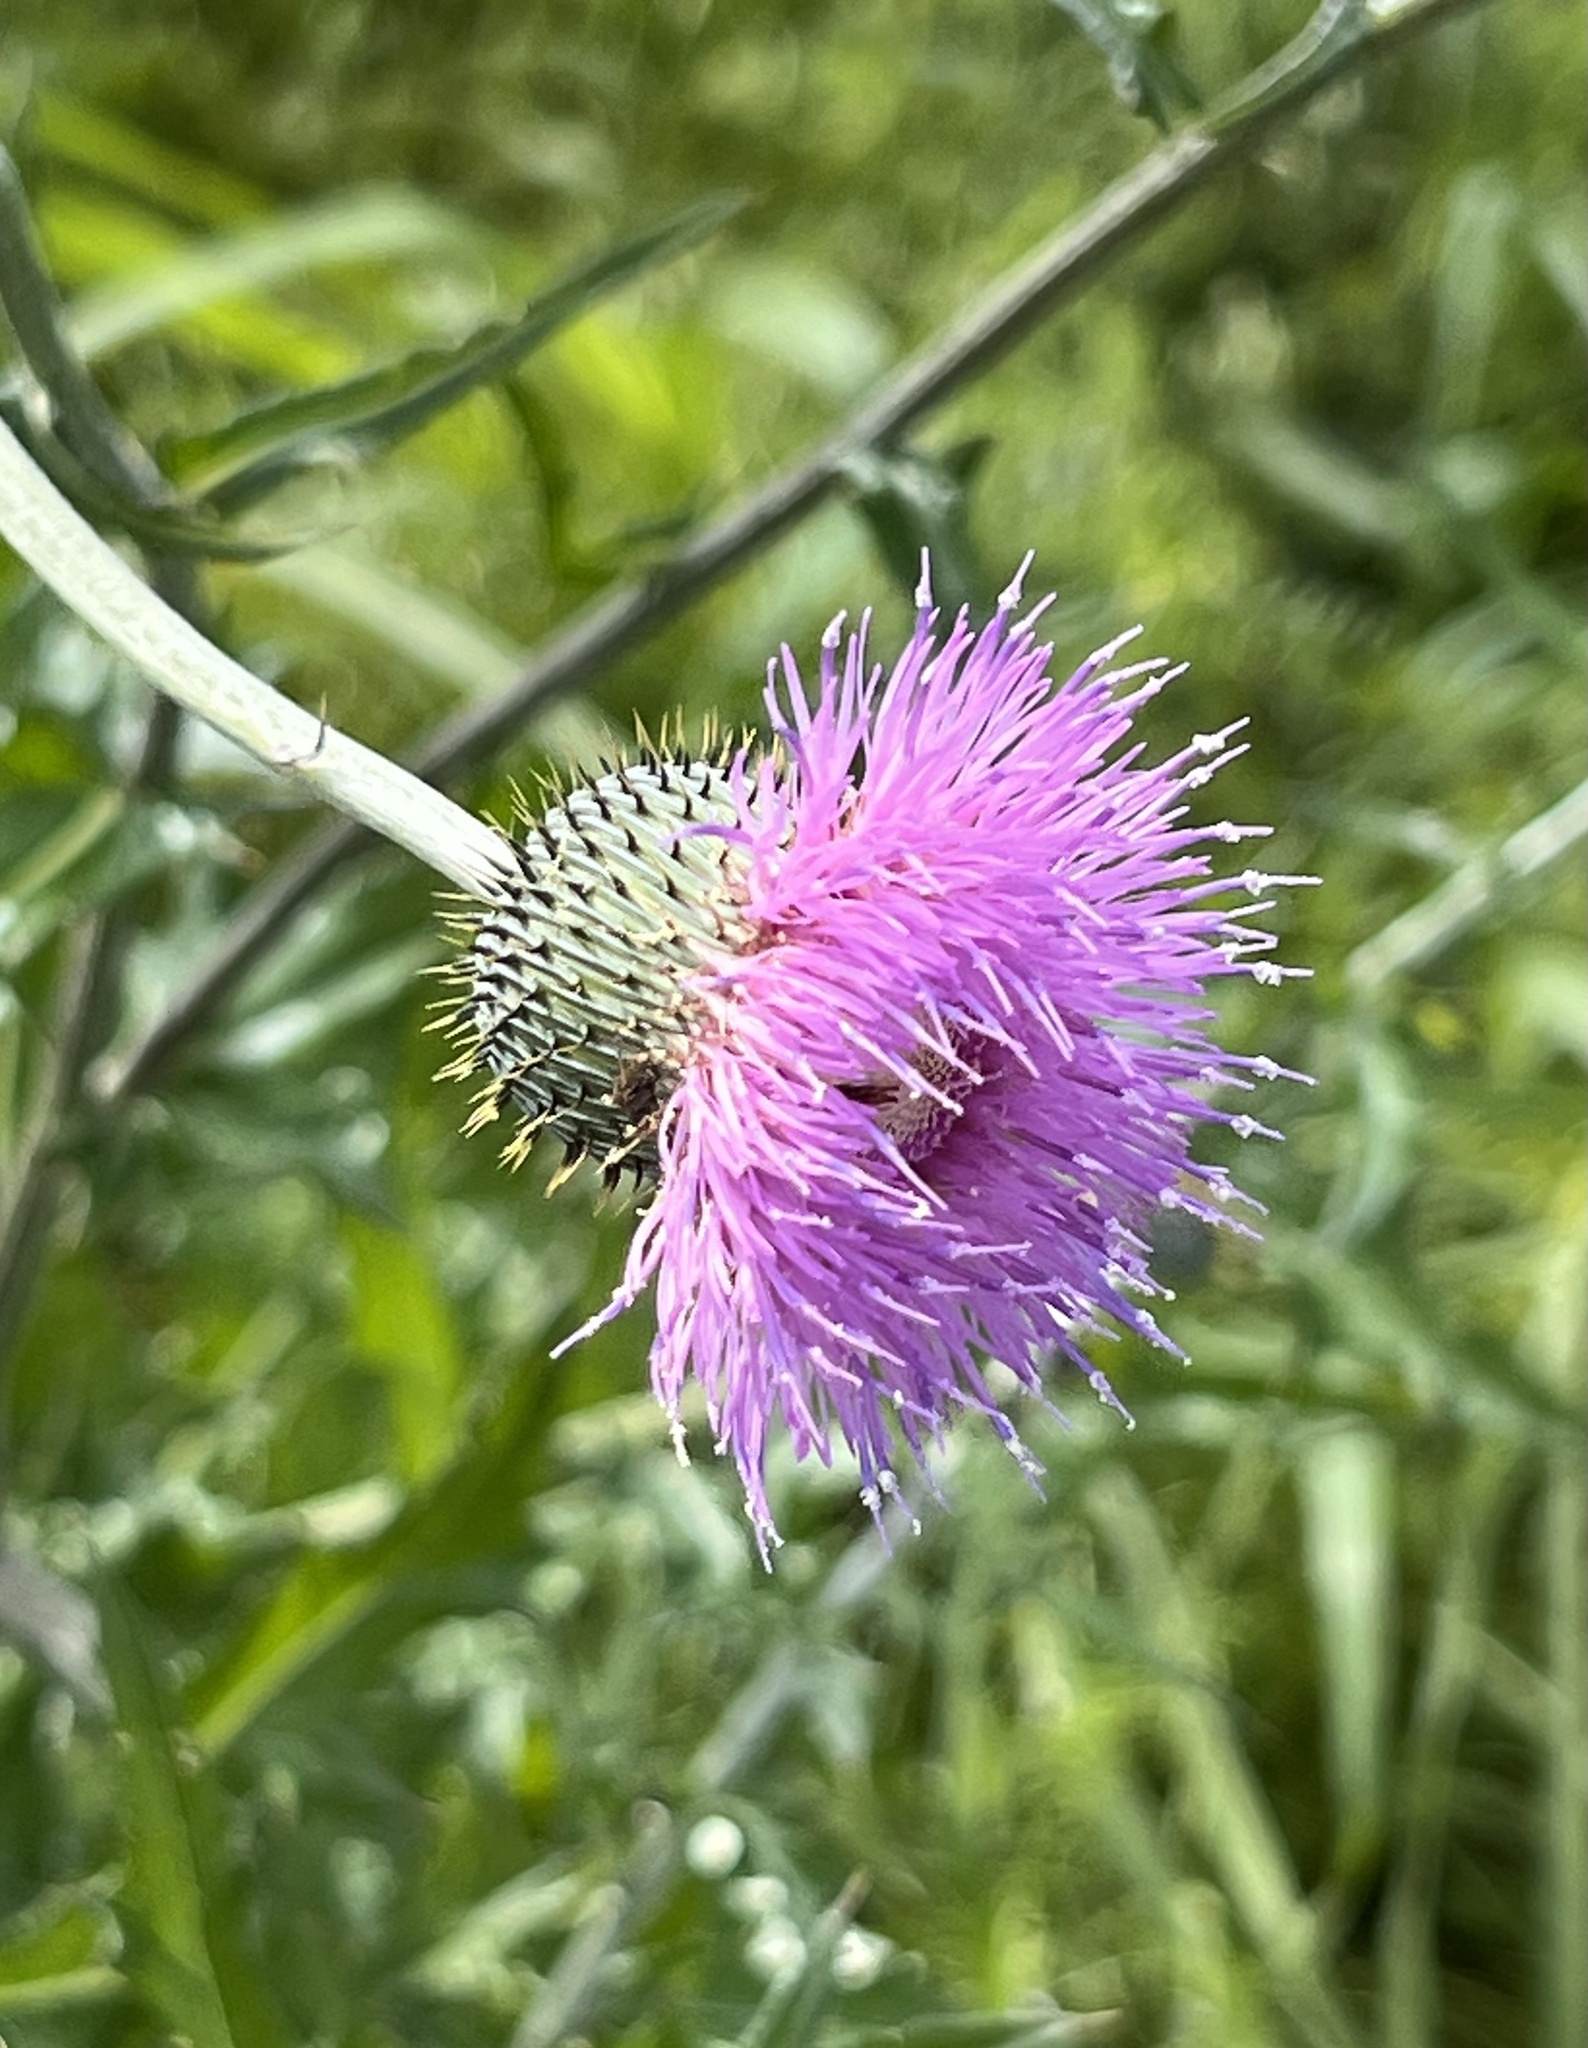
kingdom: Plantae
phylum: Tracheophyta
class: Magnoliopsida
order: Asterales
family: Asteraceae
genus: Cirsium
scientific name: Cirsium texanum
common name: Texas purple thistle
